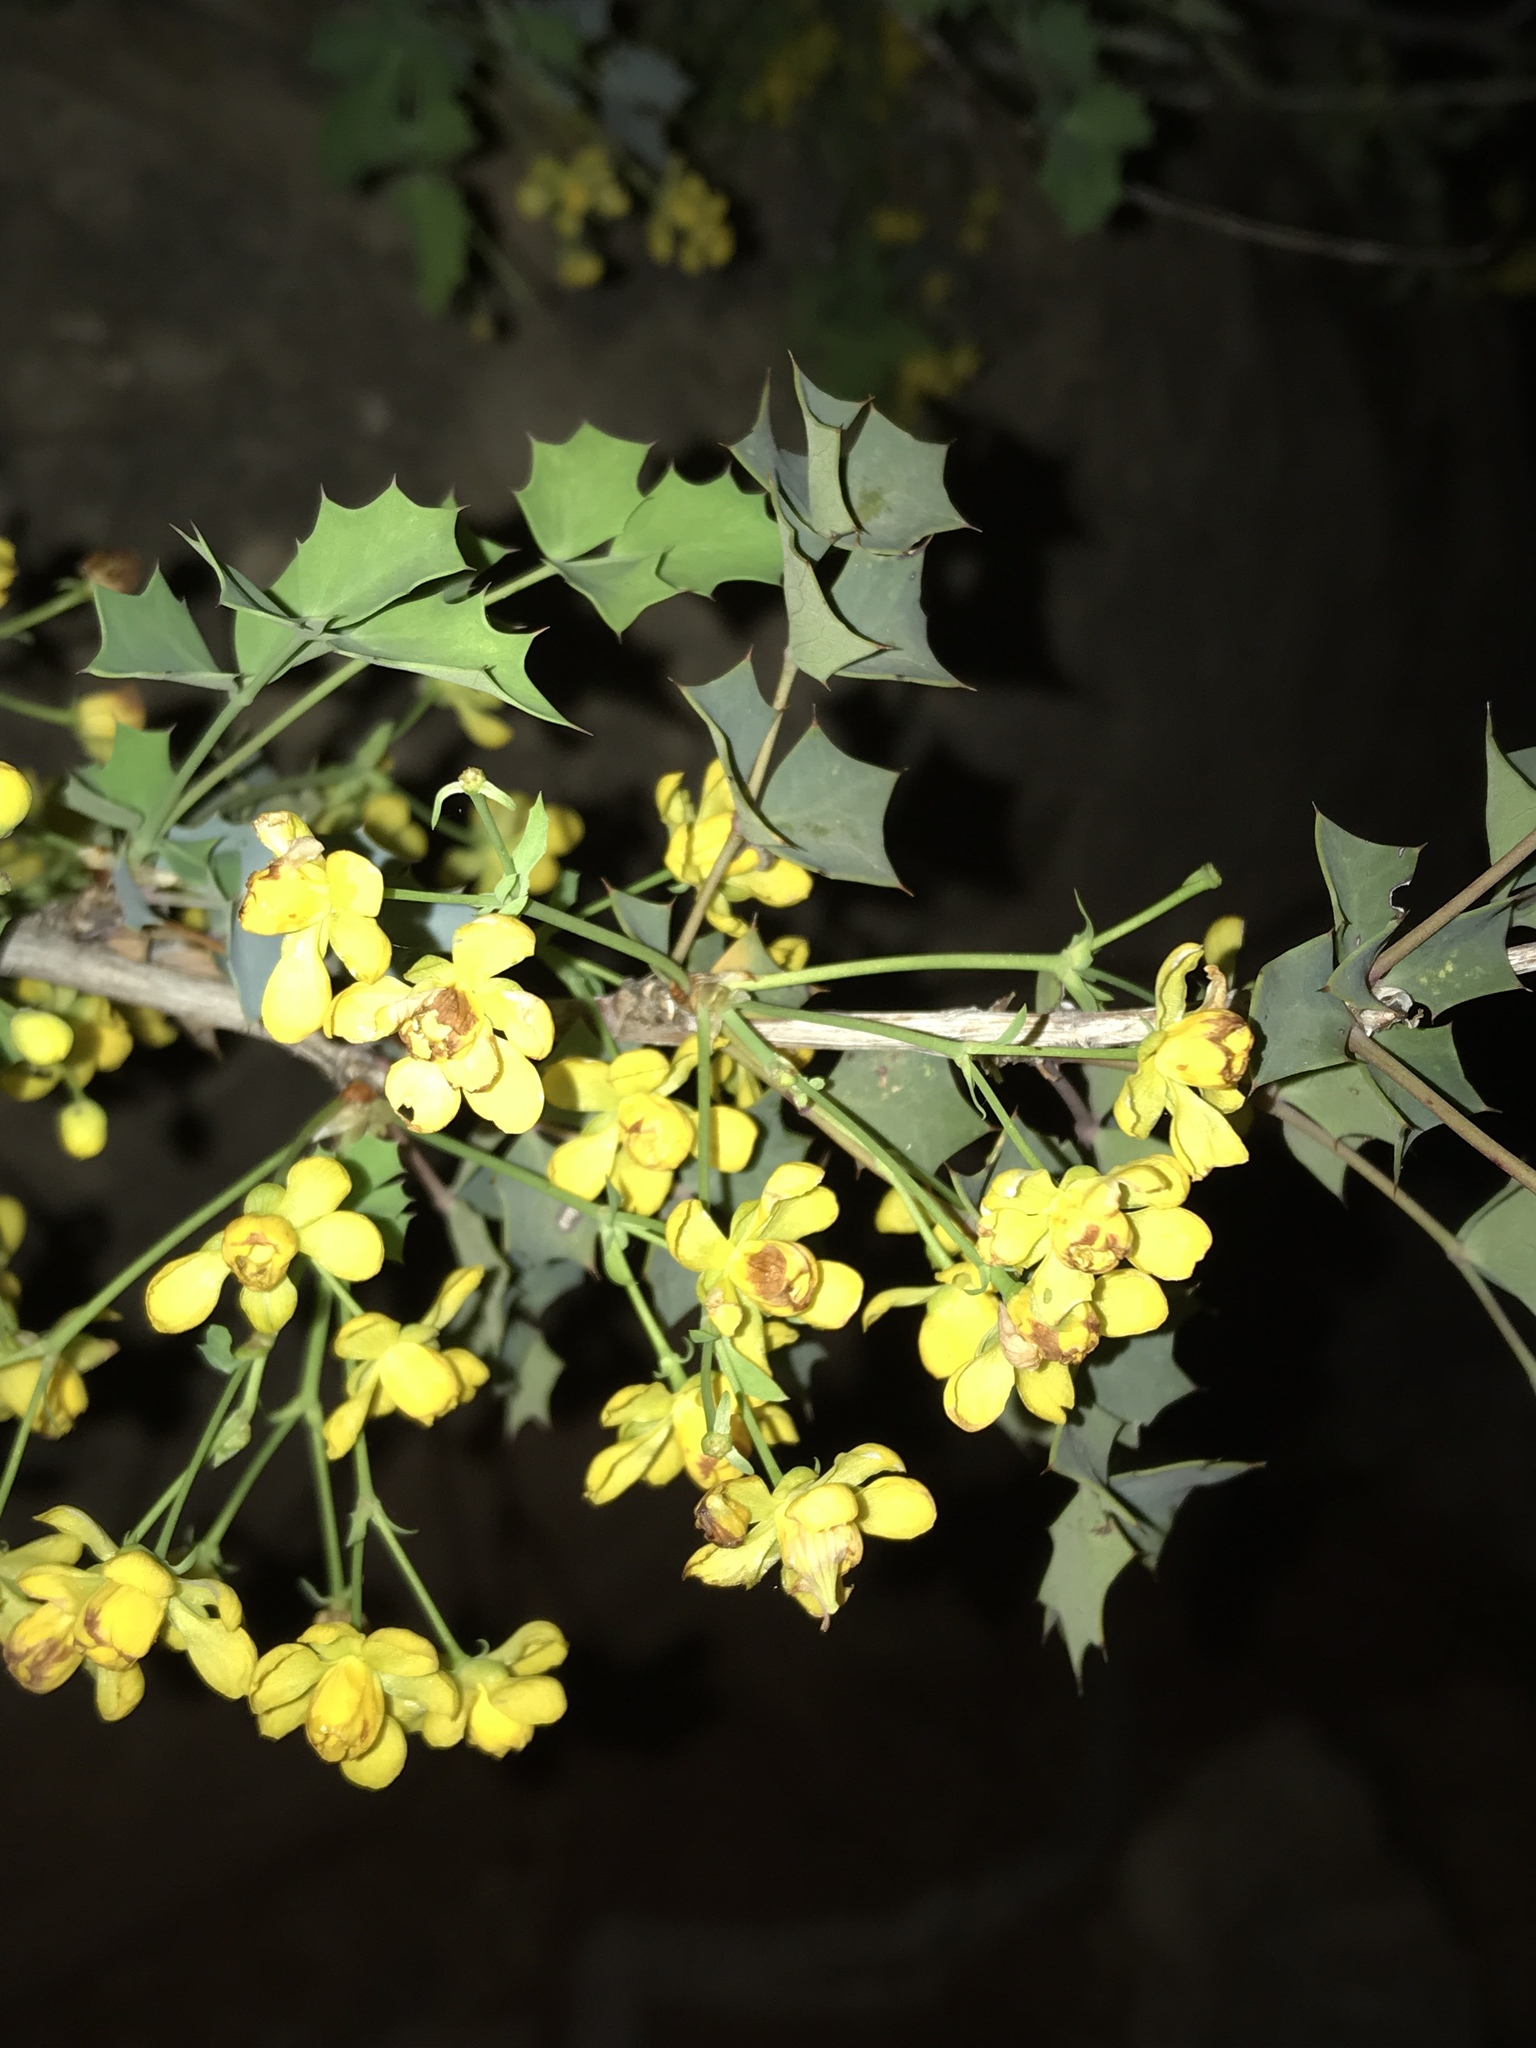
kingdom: Plantae
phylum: Tracheophyta
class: Magnoliopsida
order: Ranunculales
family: Berberidaceae
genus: Alloberberis
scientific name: Alloberberis fremontii
